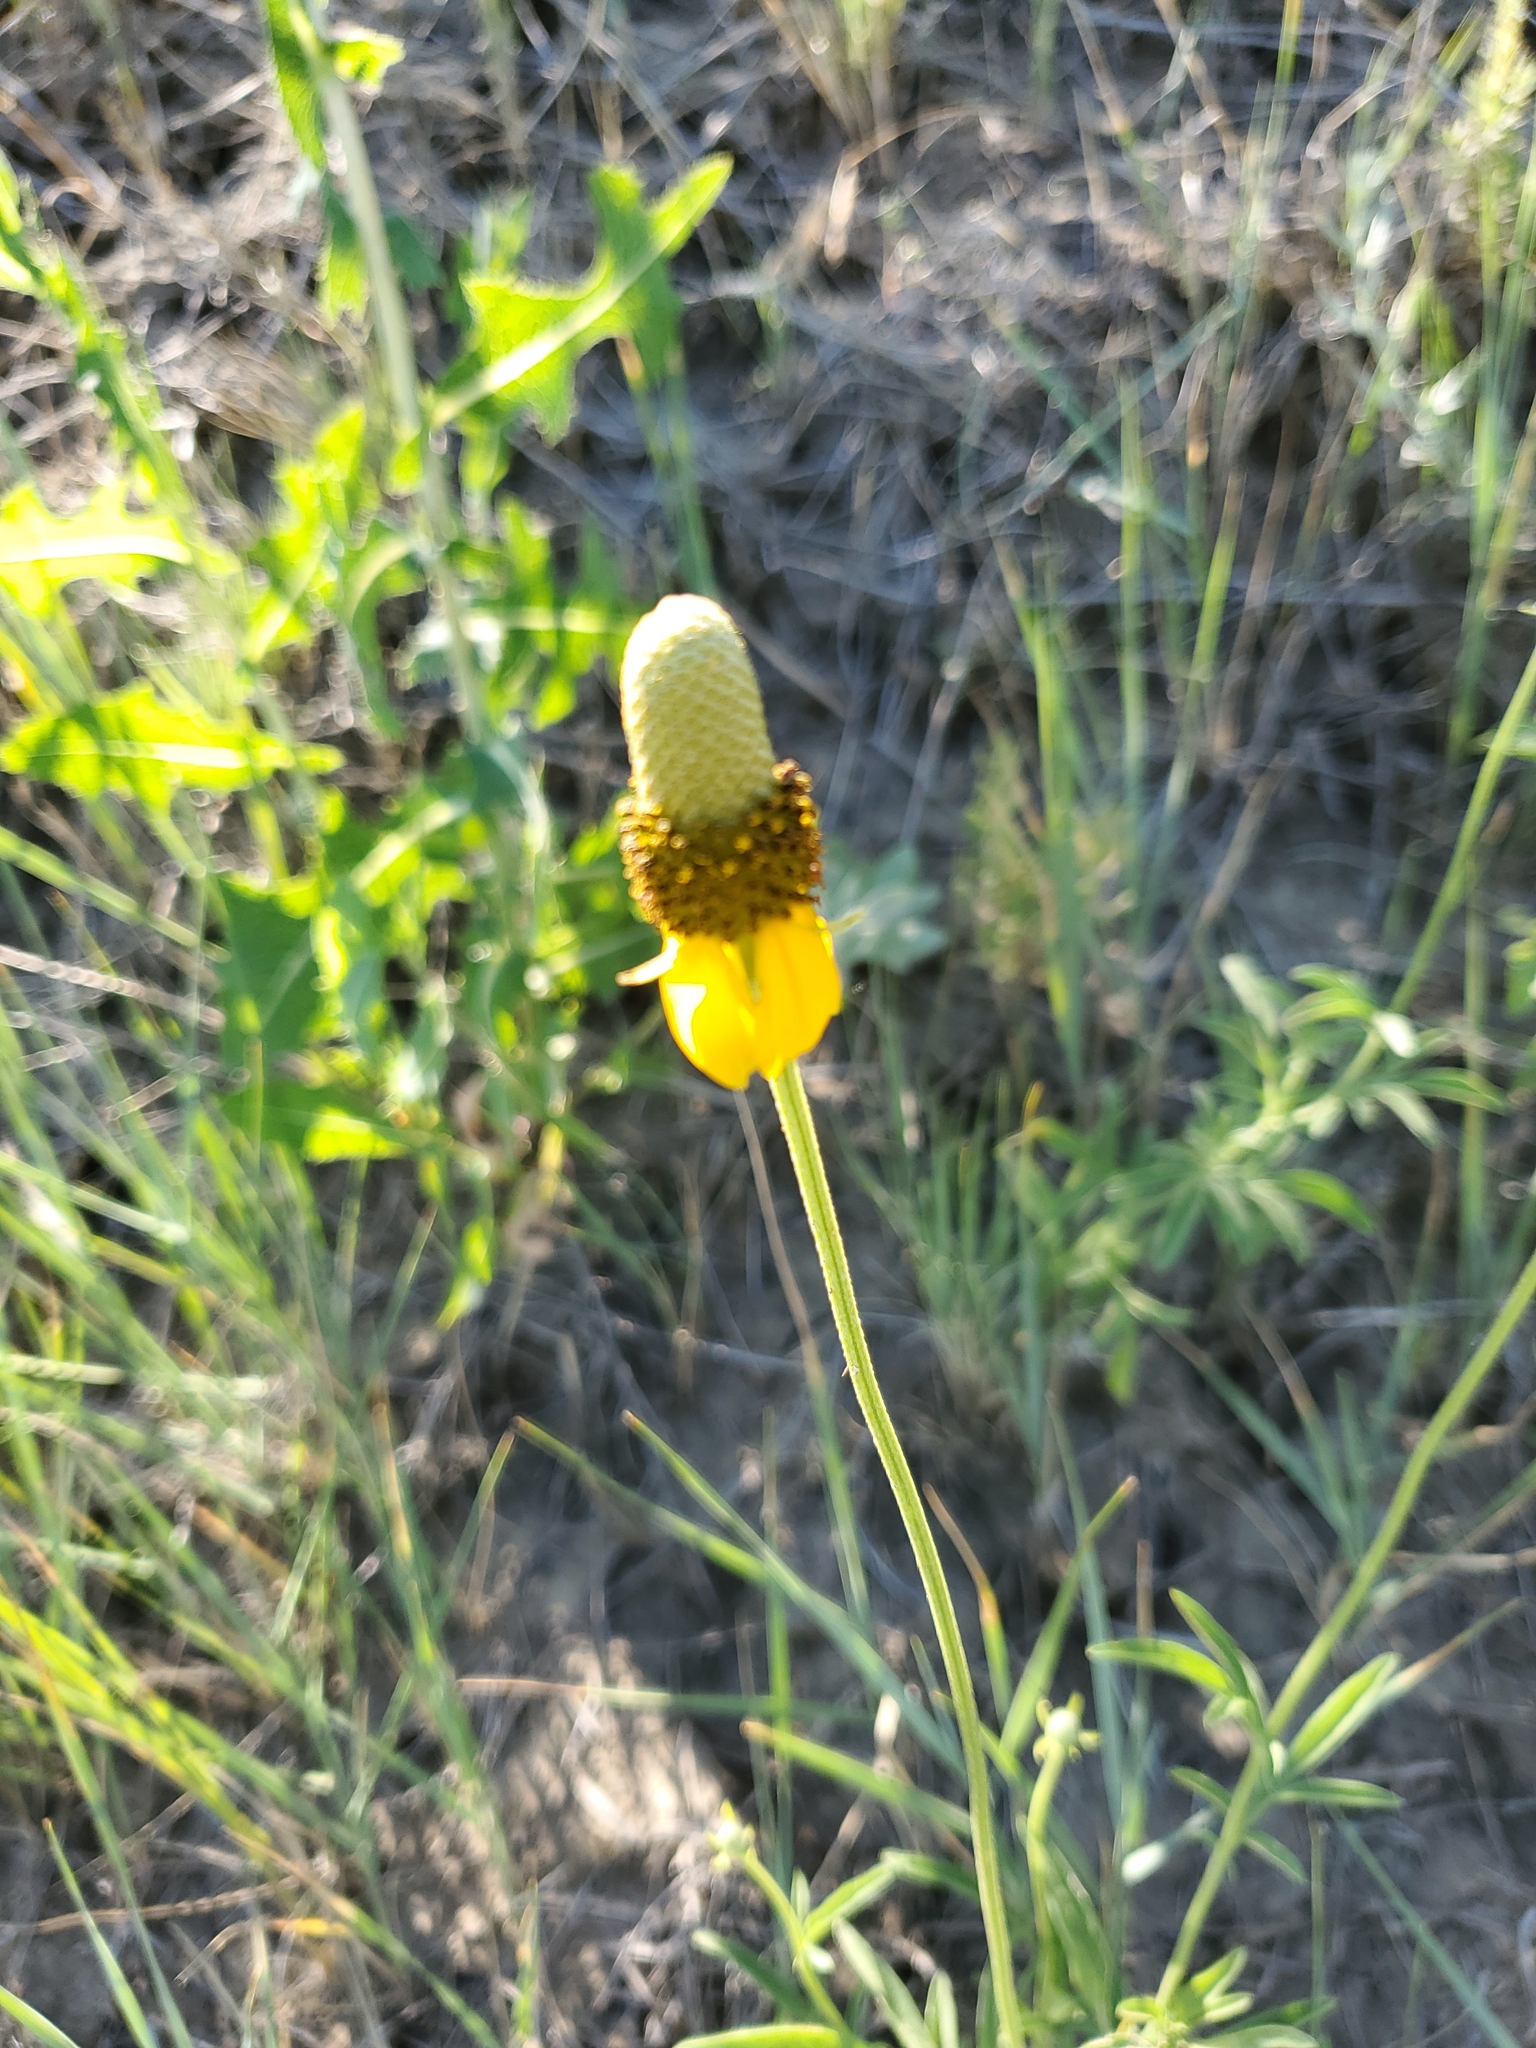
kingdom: Plantae
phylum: Tracheophyta
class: Magnoliopsida
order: Asterales
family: Asteraceae
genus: Ratibida
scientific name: Ratibida columnifera
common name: Prairie coneflower
